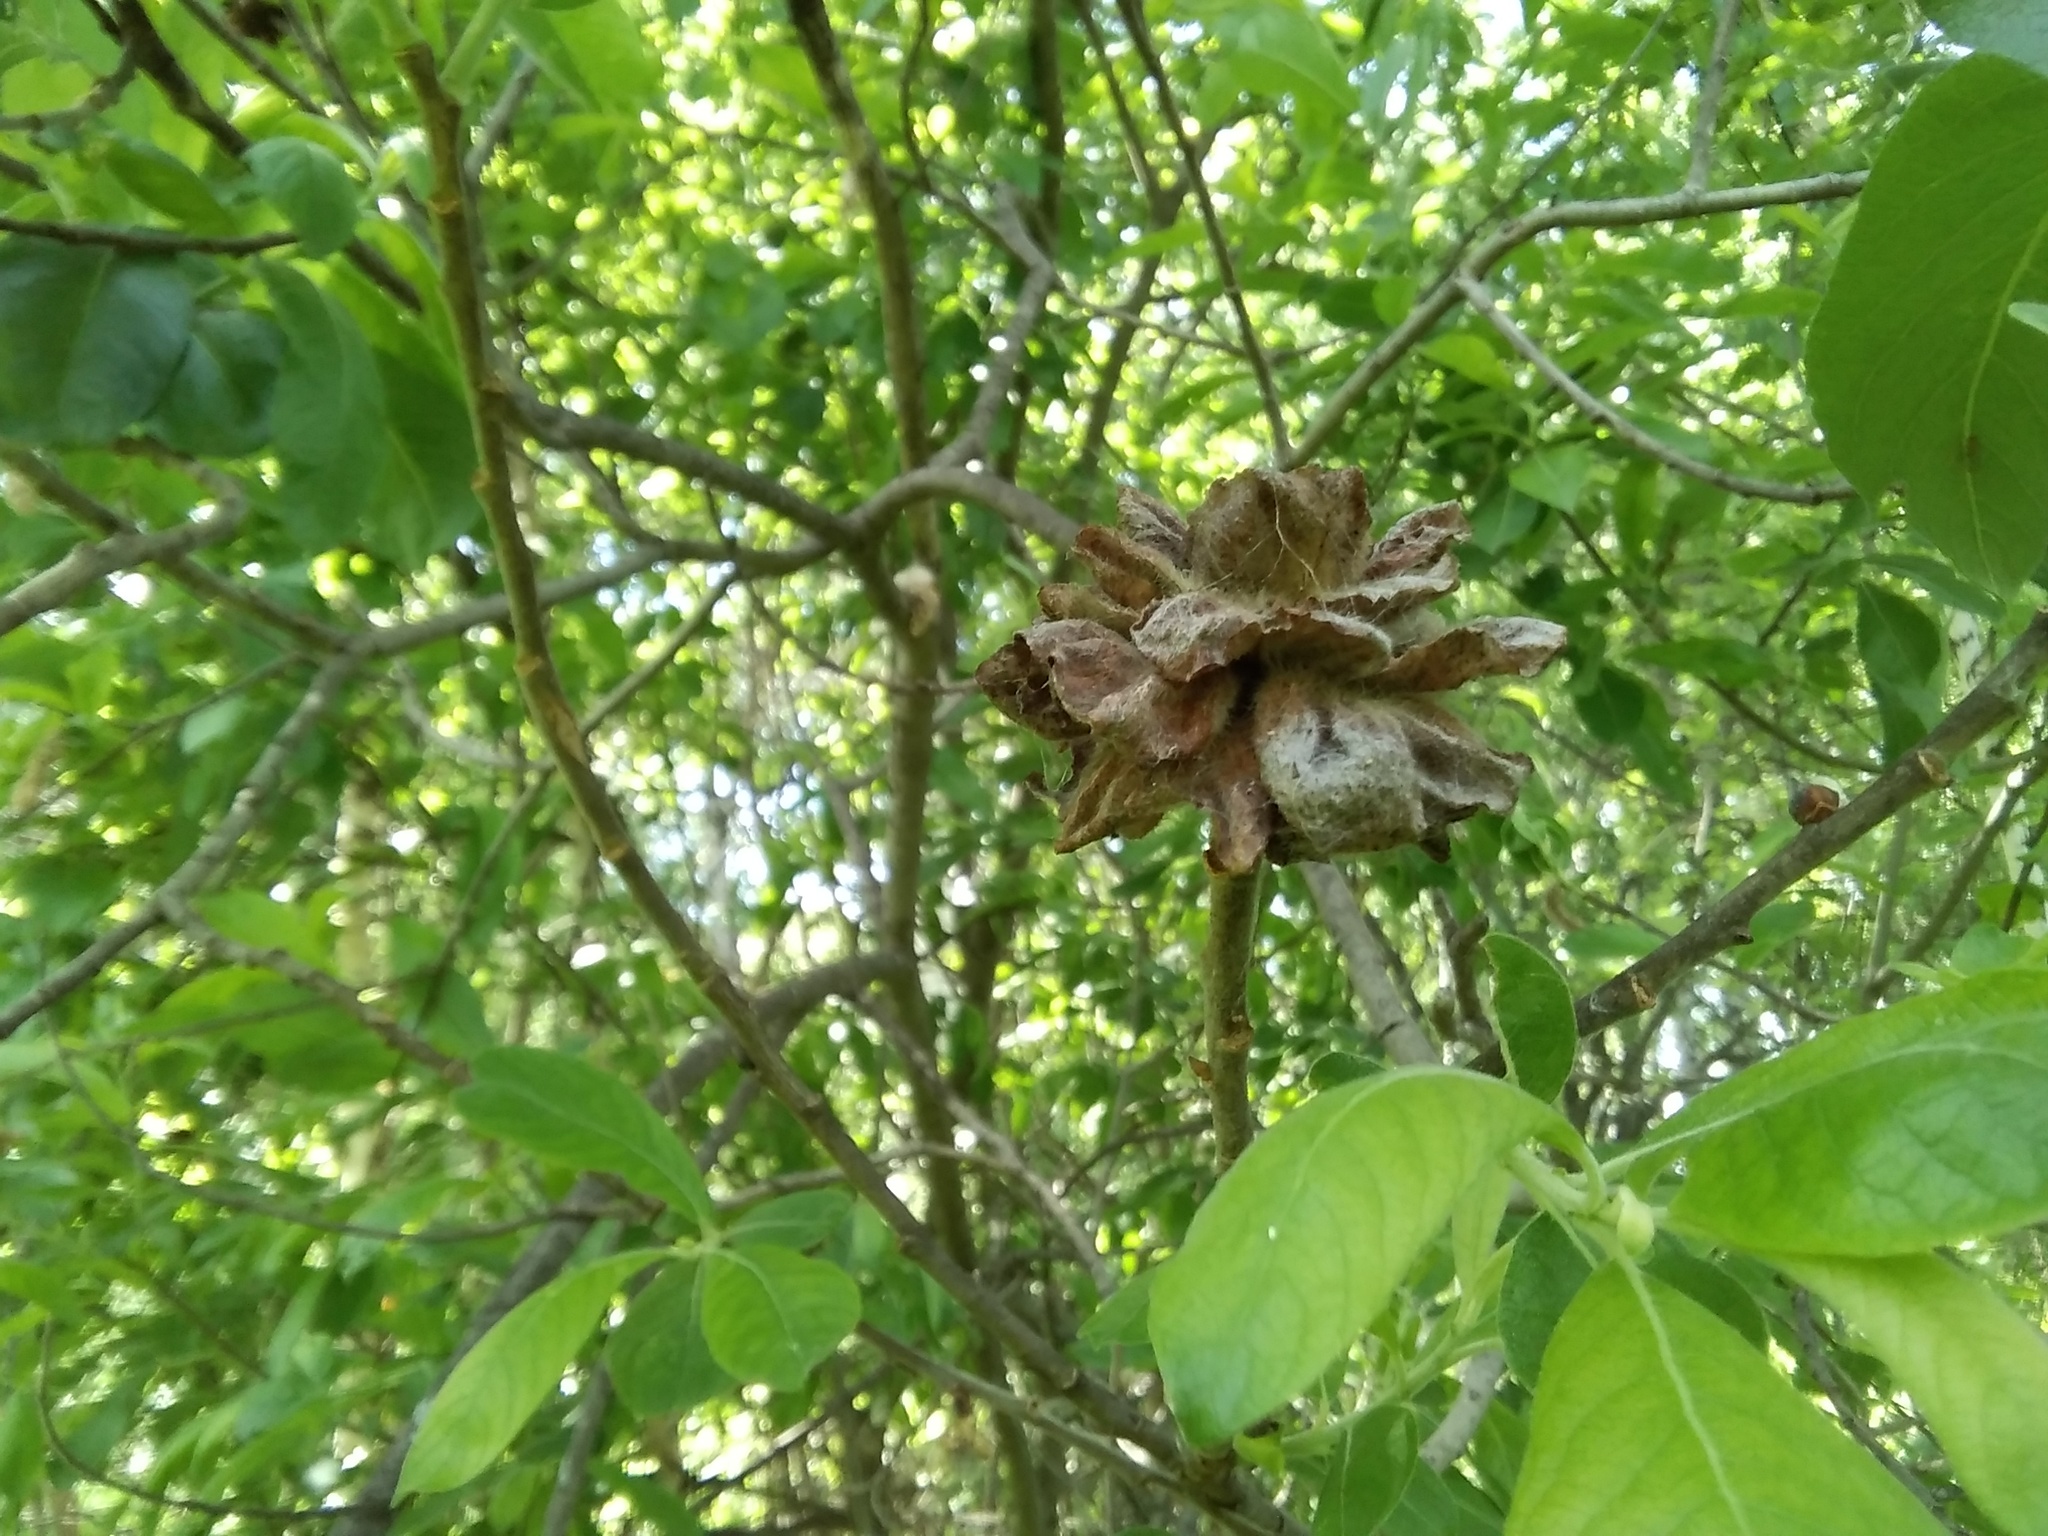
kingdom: Animalia
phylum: Arthropoda
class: Insecta
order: Diptera
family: Cecidomyiidae
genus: Rabdophaga
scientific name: Rabdophaga rosaria
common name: Willow rose gall midge
